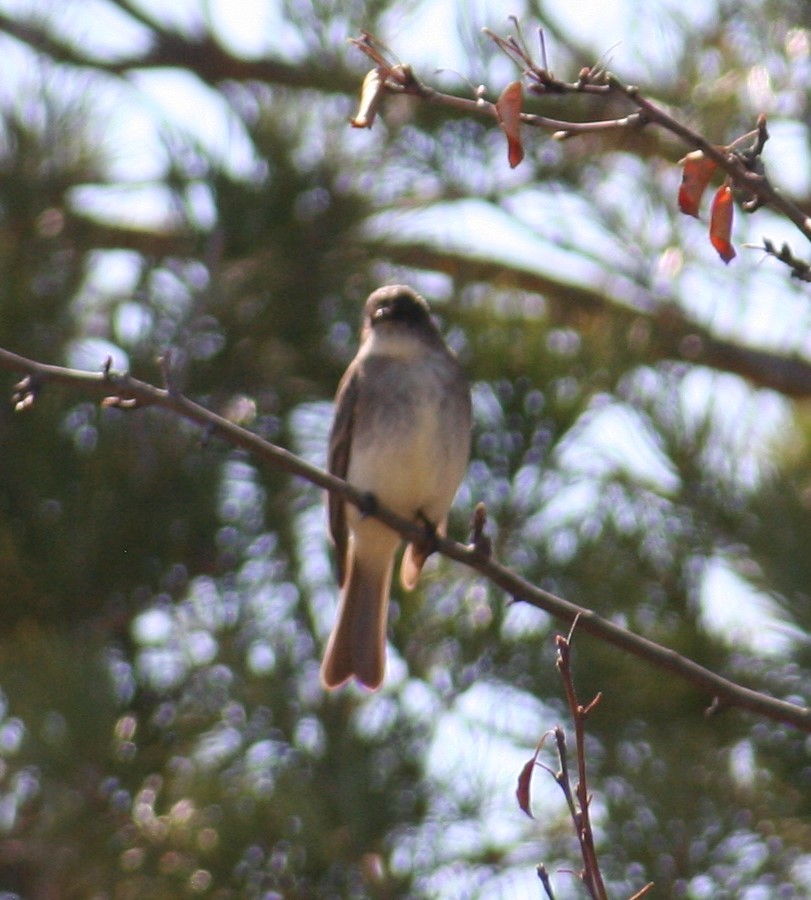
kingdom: Animalia
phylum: Chordata
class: Aves
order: Passeriformes
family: Tyrannidae
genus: Sayornis
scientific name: Sayornis phoebe
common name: Eastern phoebe
